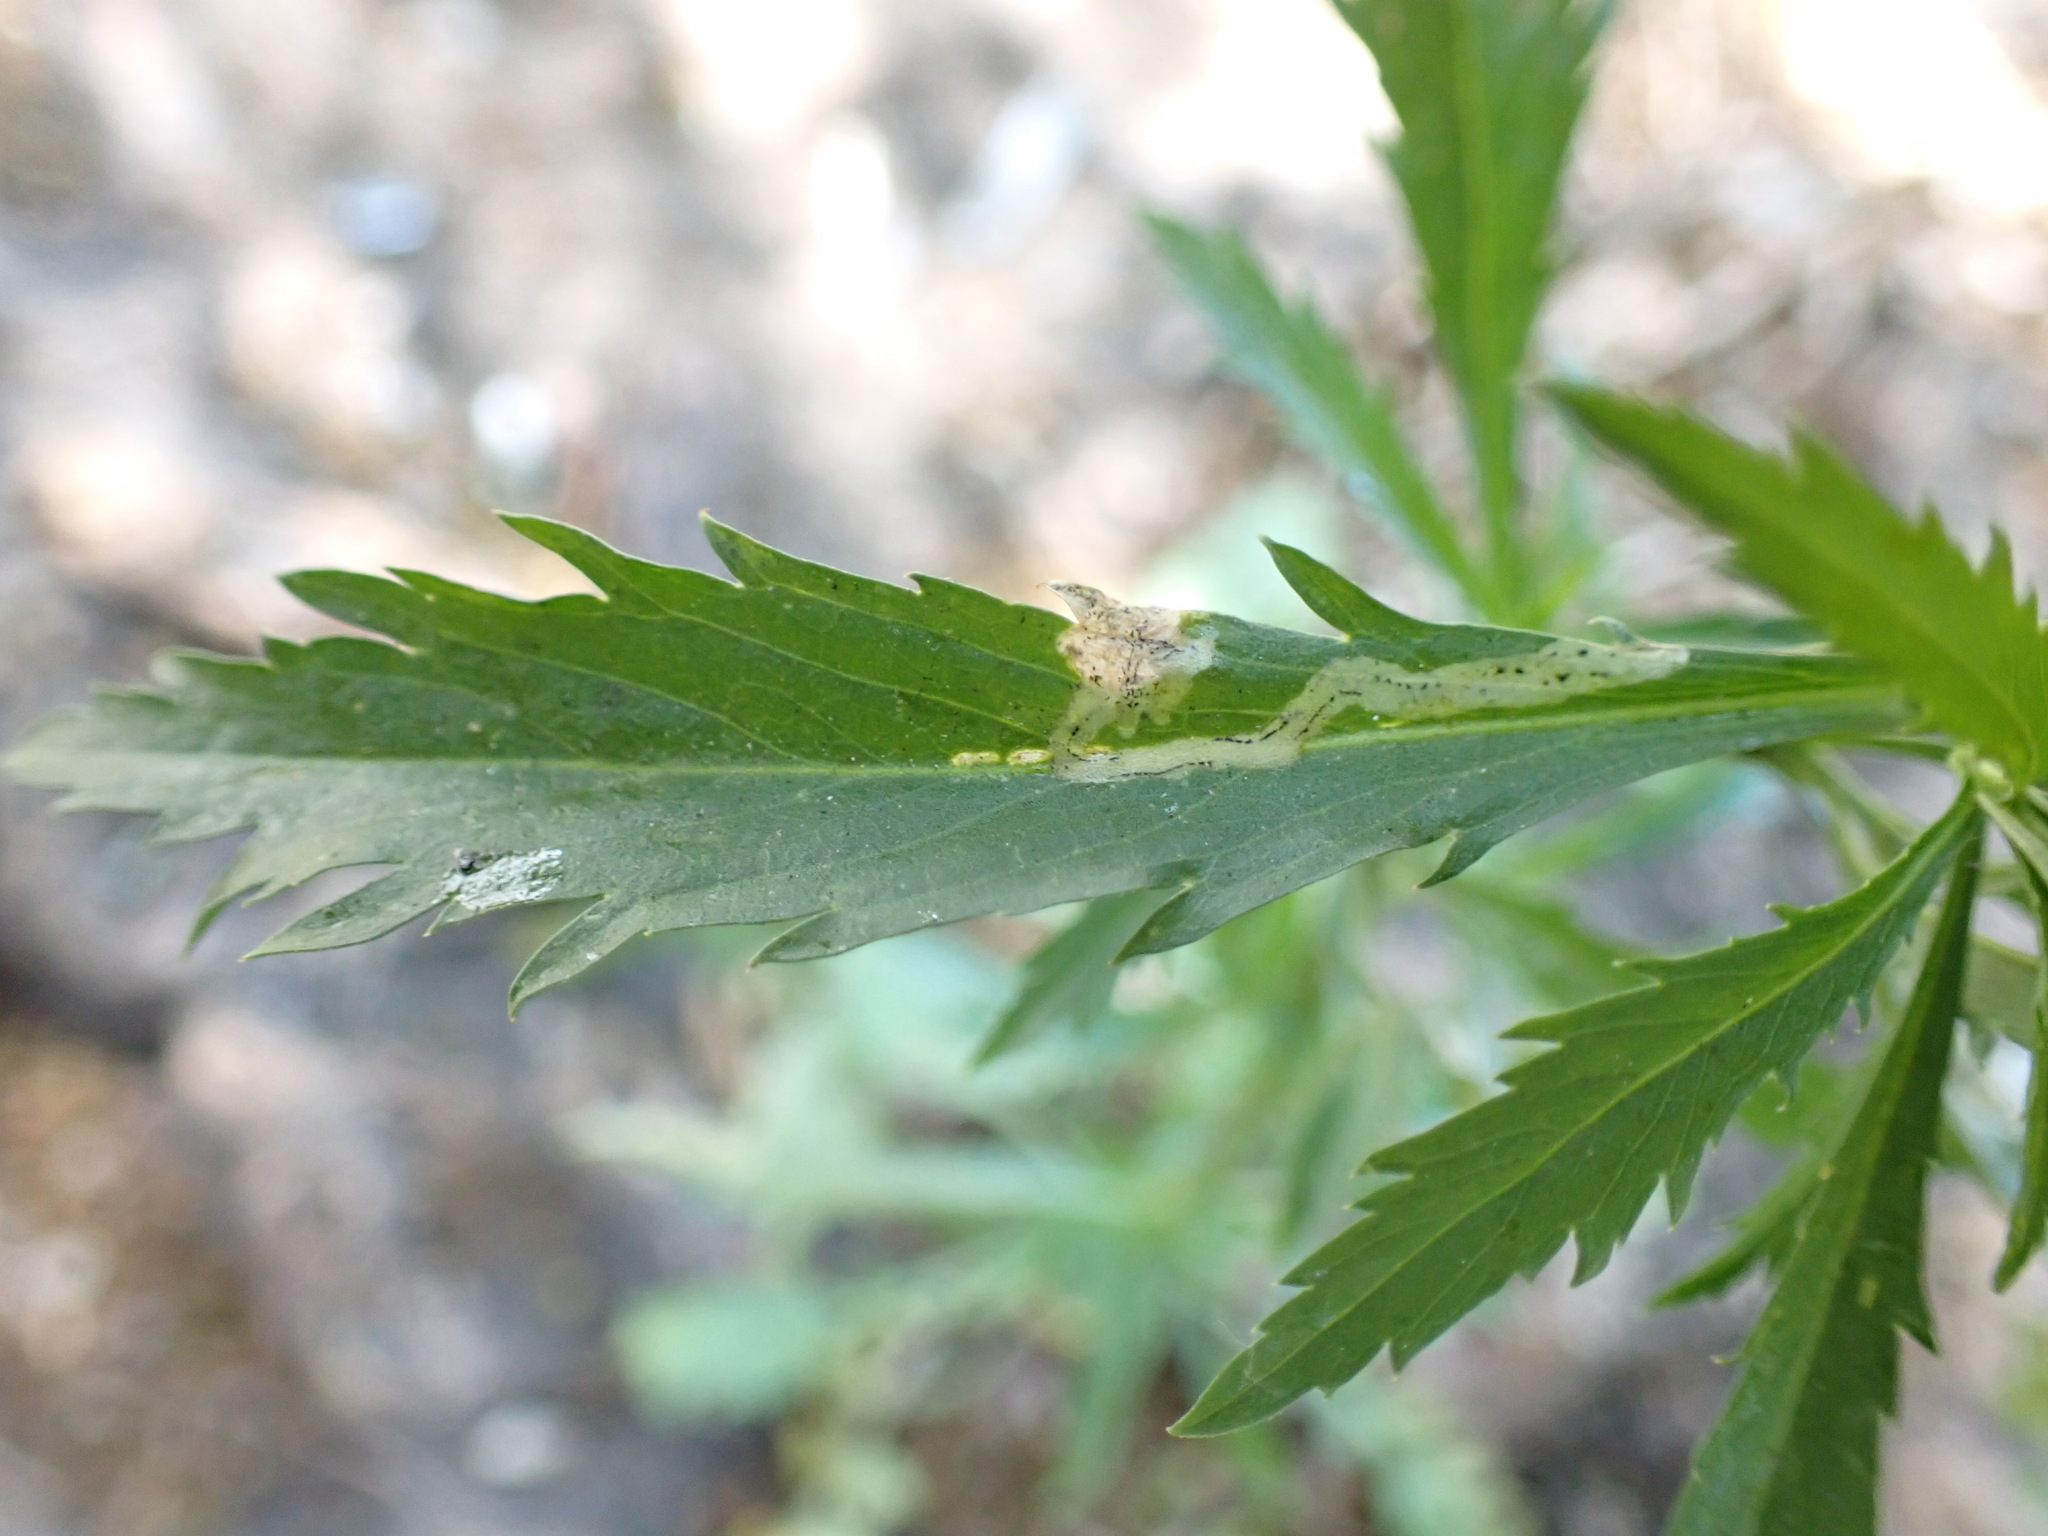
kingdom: Animalia
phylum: Arthropoda
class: Insecta
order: Diptera
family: Agromyzidae
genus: Liriomyza
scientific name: Liriomyza brassicae
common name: Serpentine leaf miner
